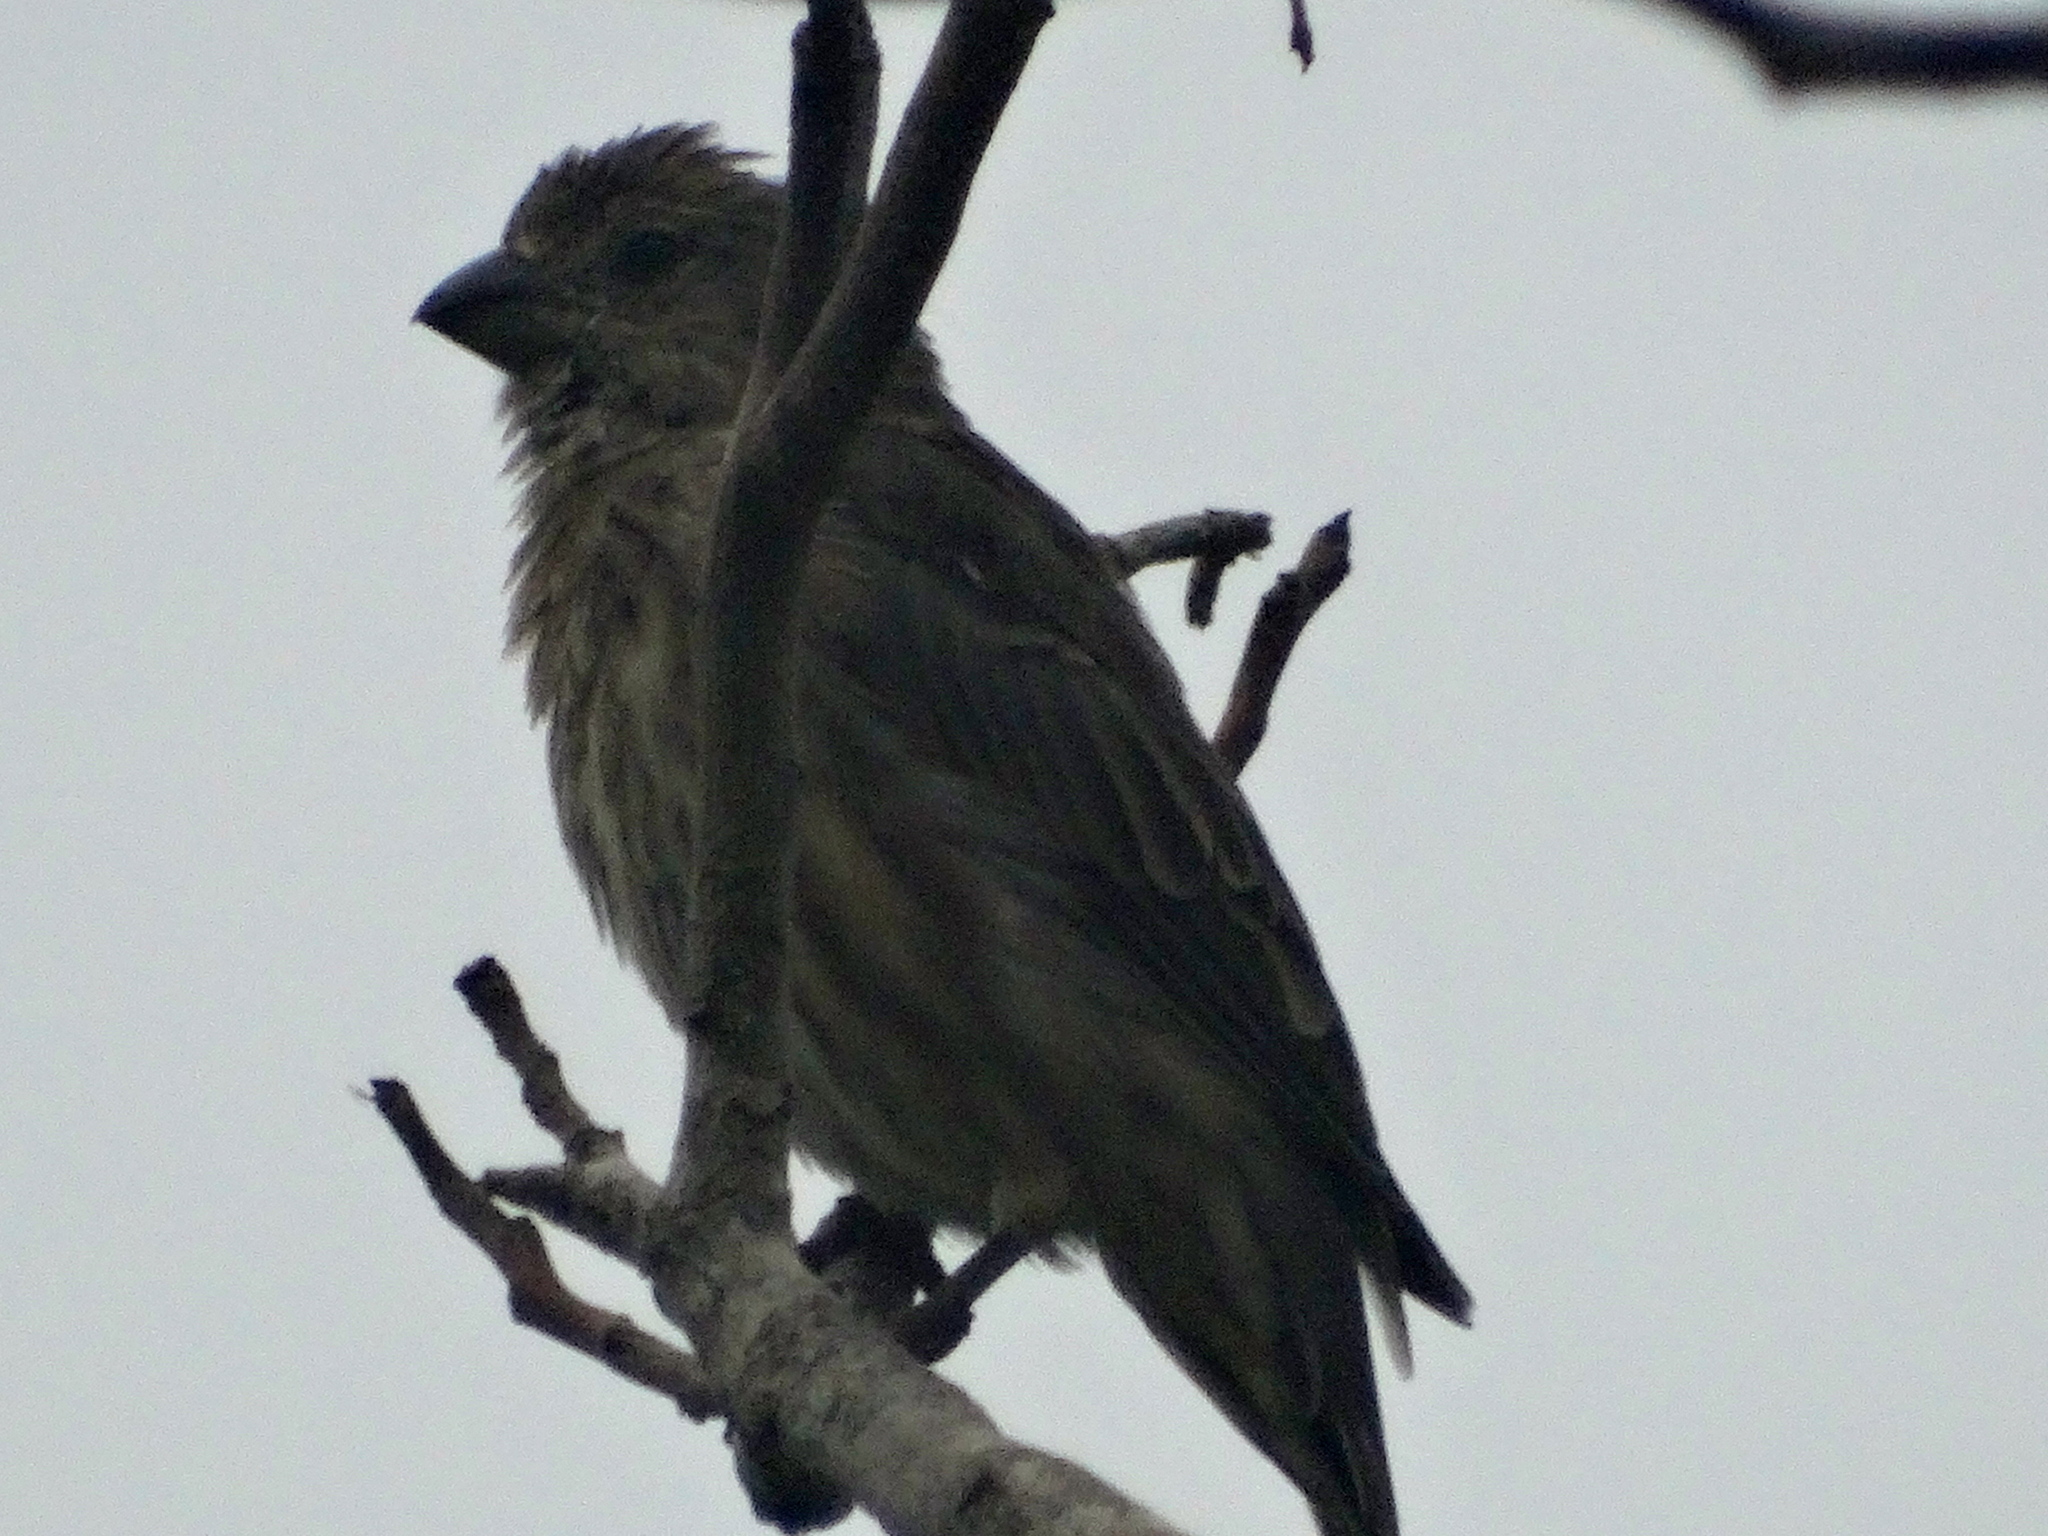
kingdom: Animalia
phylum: Chordata
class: Aves
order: Passeriformes
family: Fringillidae
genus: Haemorhous
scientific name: Haemorhous mexicanus
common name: House finch
